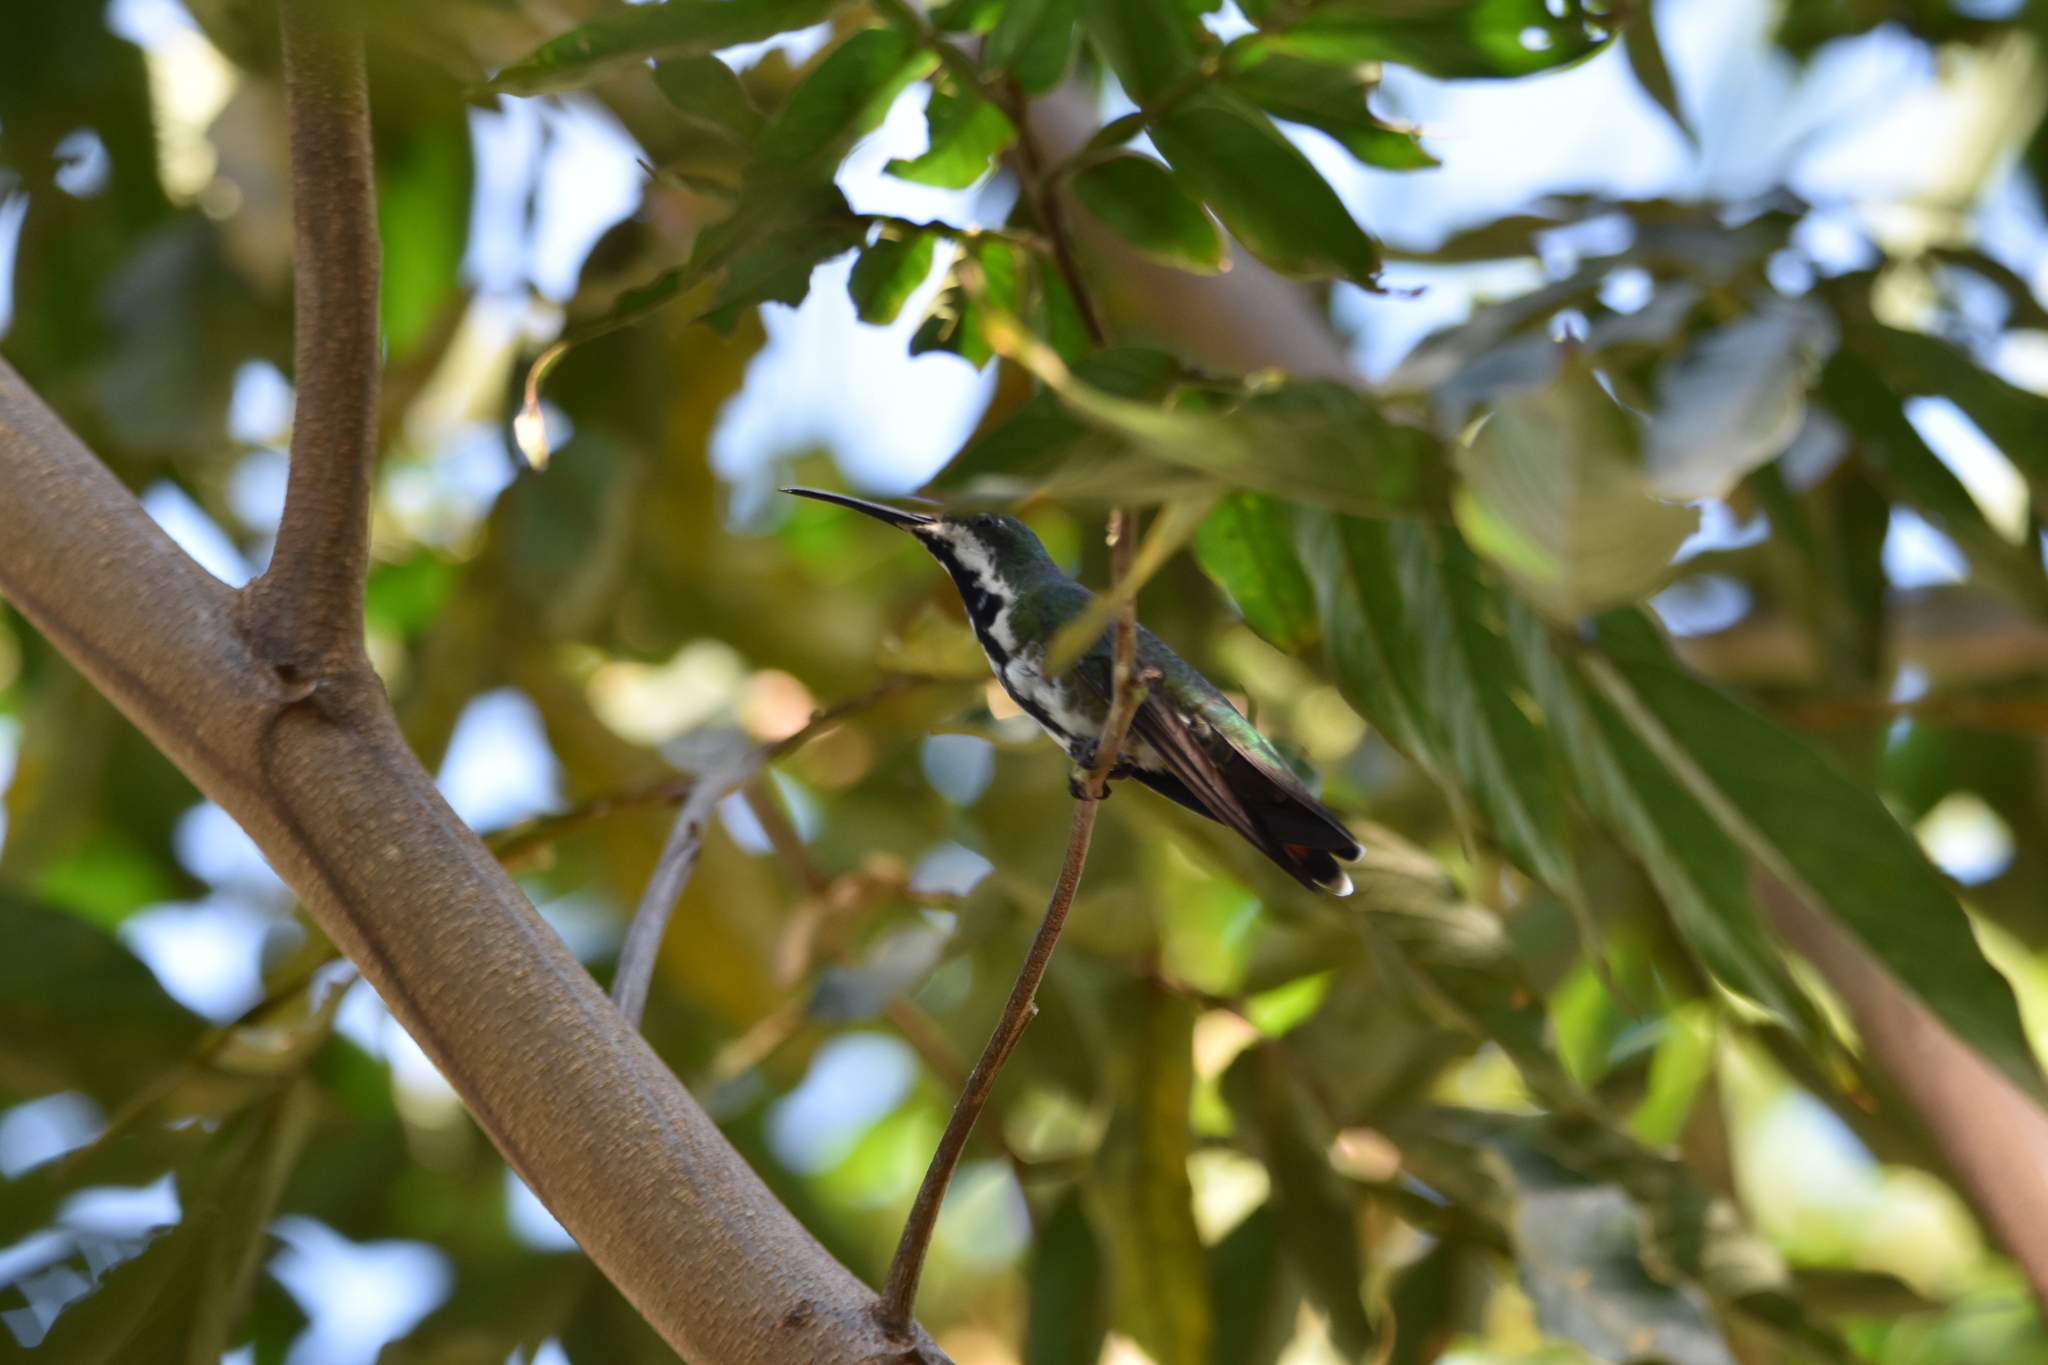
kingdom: Animalia
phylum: Chordata
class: Aves
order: Apodiformes
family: Trochilidae
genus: Anthracothorax
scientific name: Anthracothorax nigricollis
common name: Black-throated mango
